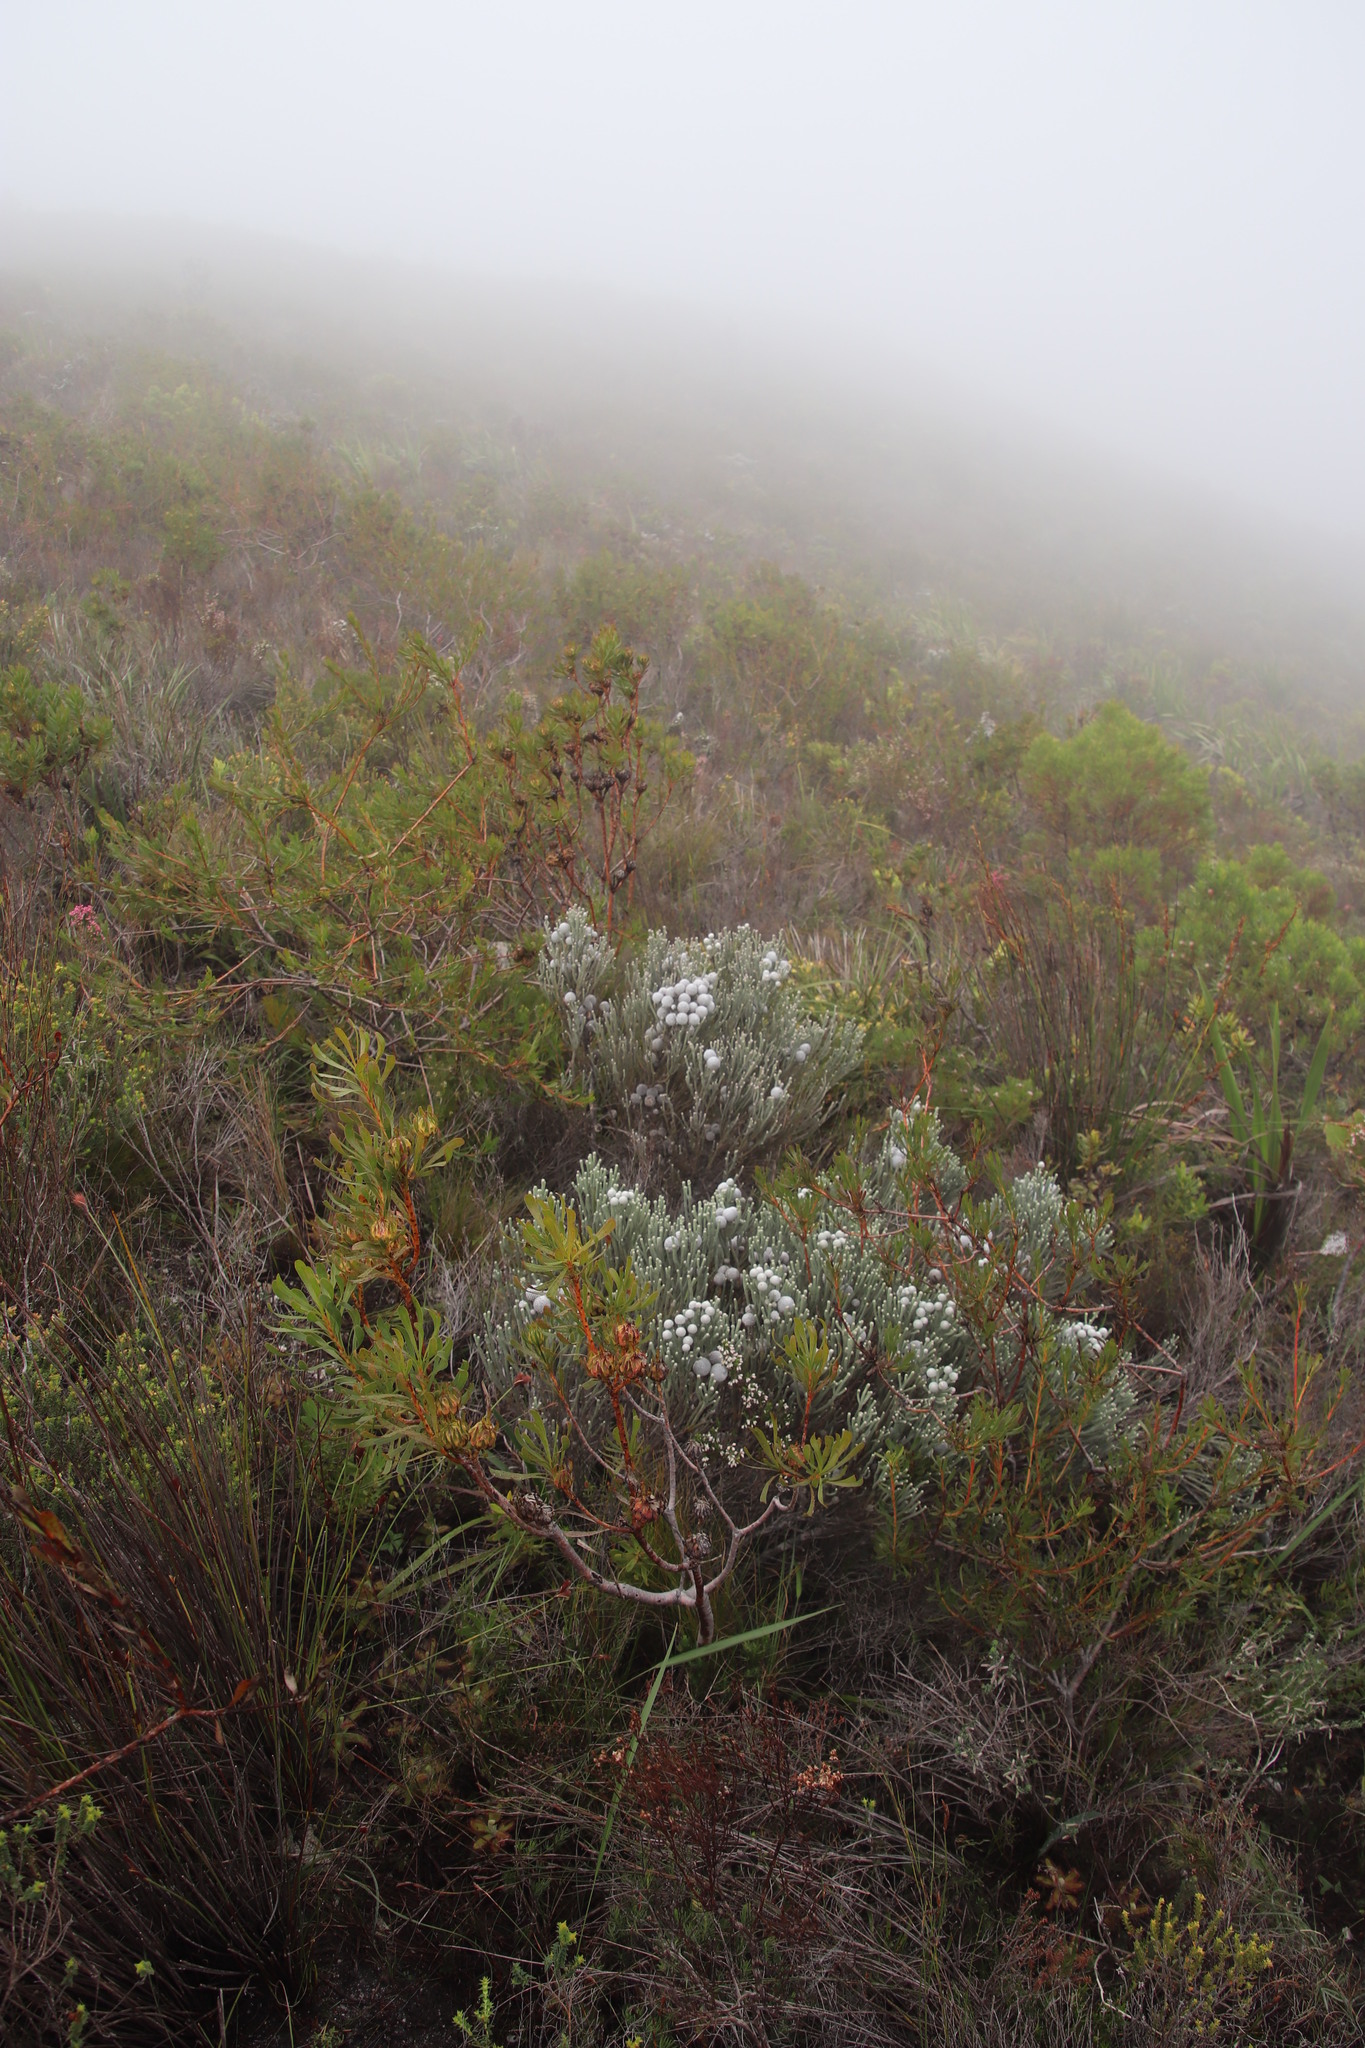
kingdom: Plantae
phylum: Tracheophyta
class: Magnoliopsida
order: Bruniales
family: Bruniaceae
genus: Brunia
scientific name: Brunia laevis
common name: Silver brunia
